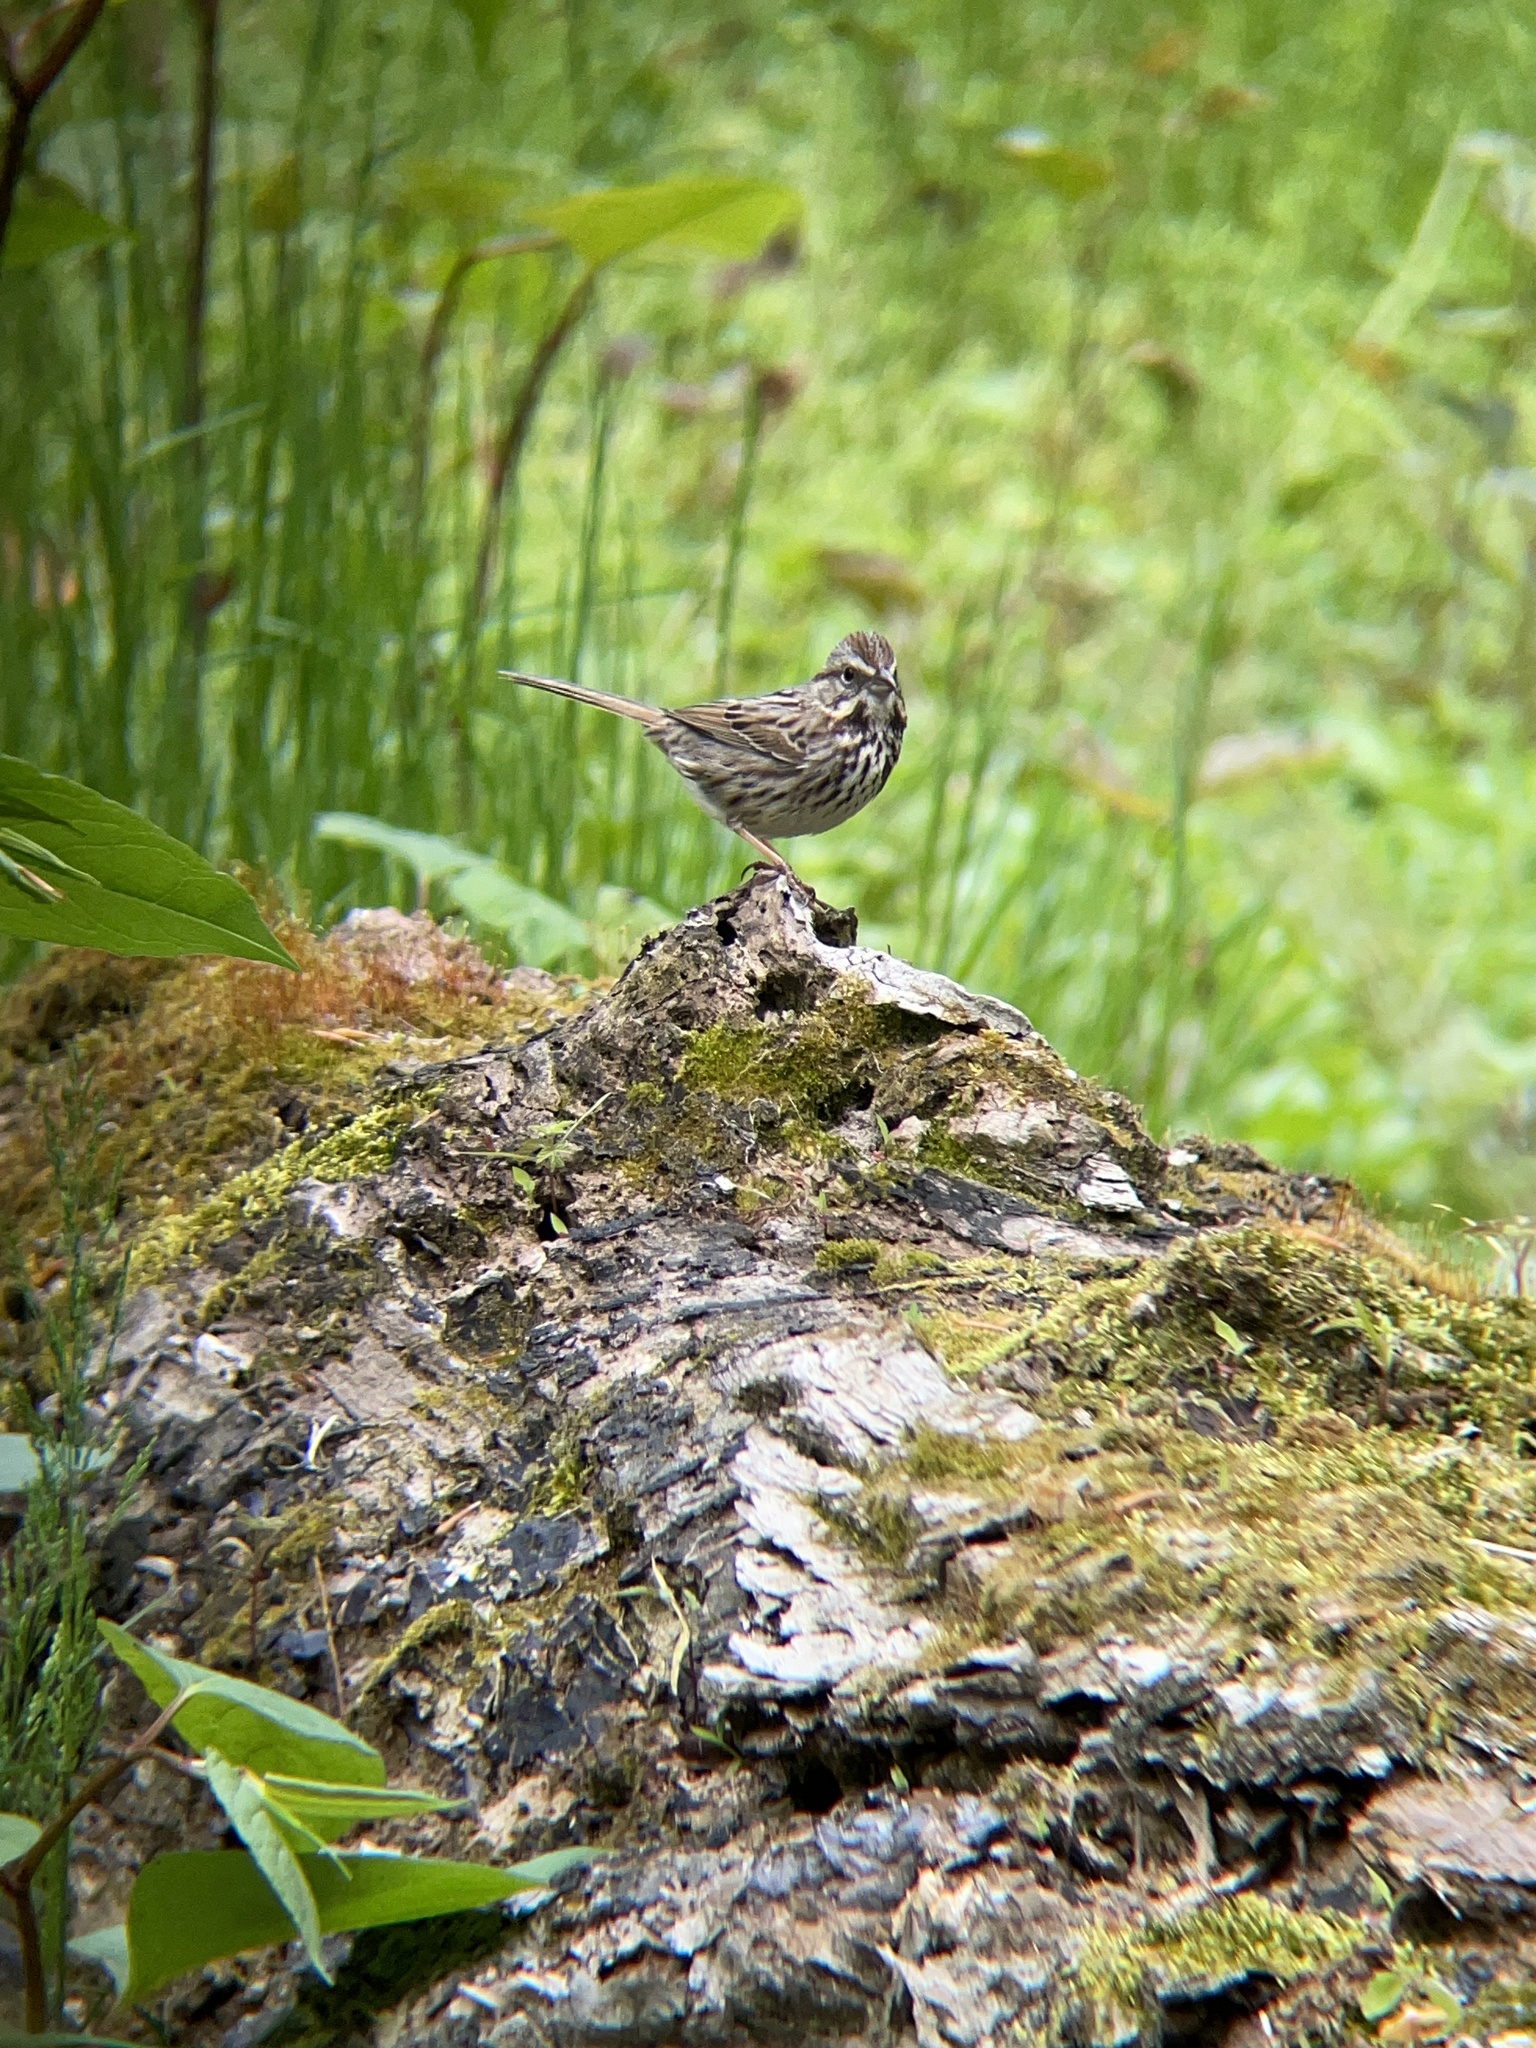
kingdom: Animalia
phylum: Chordata
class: Aves
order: Passeriformes
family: Passerellidae
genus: Melospiza
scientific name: Melospiza melodia
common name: Song sparrow
